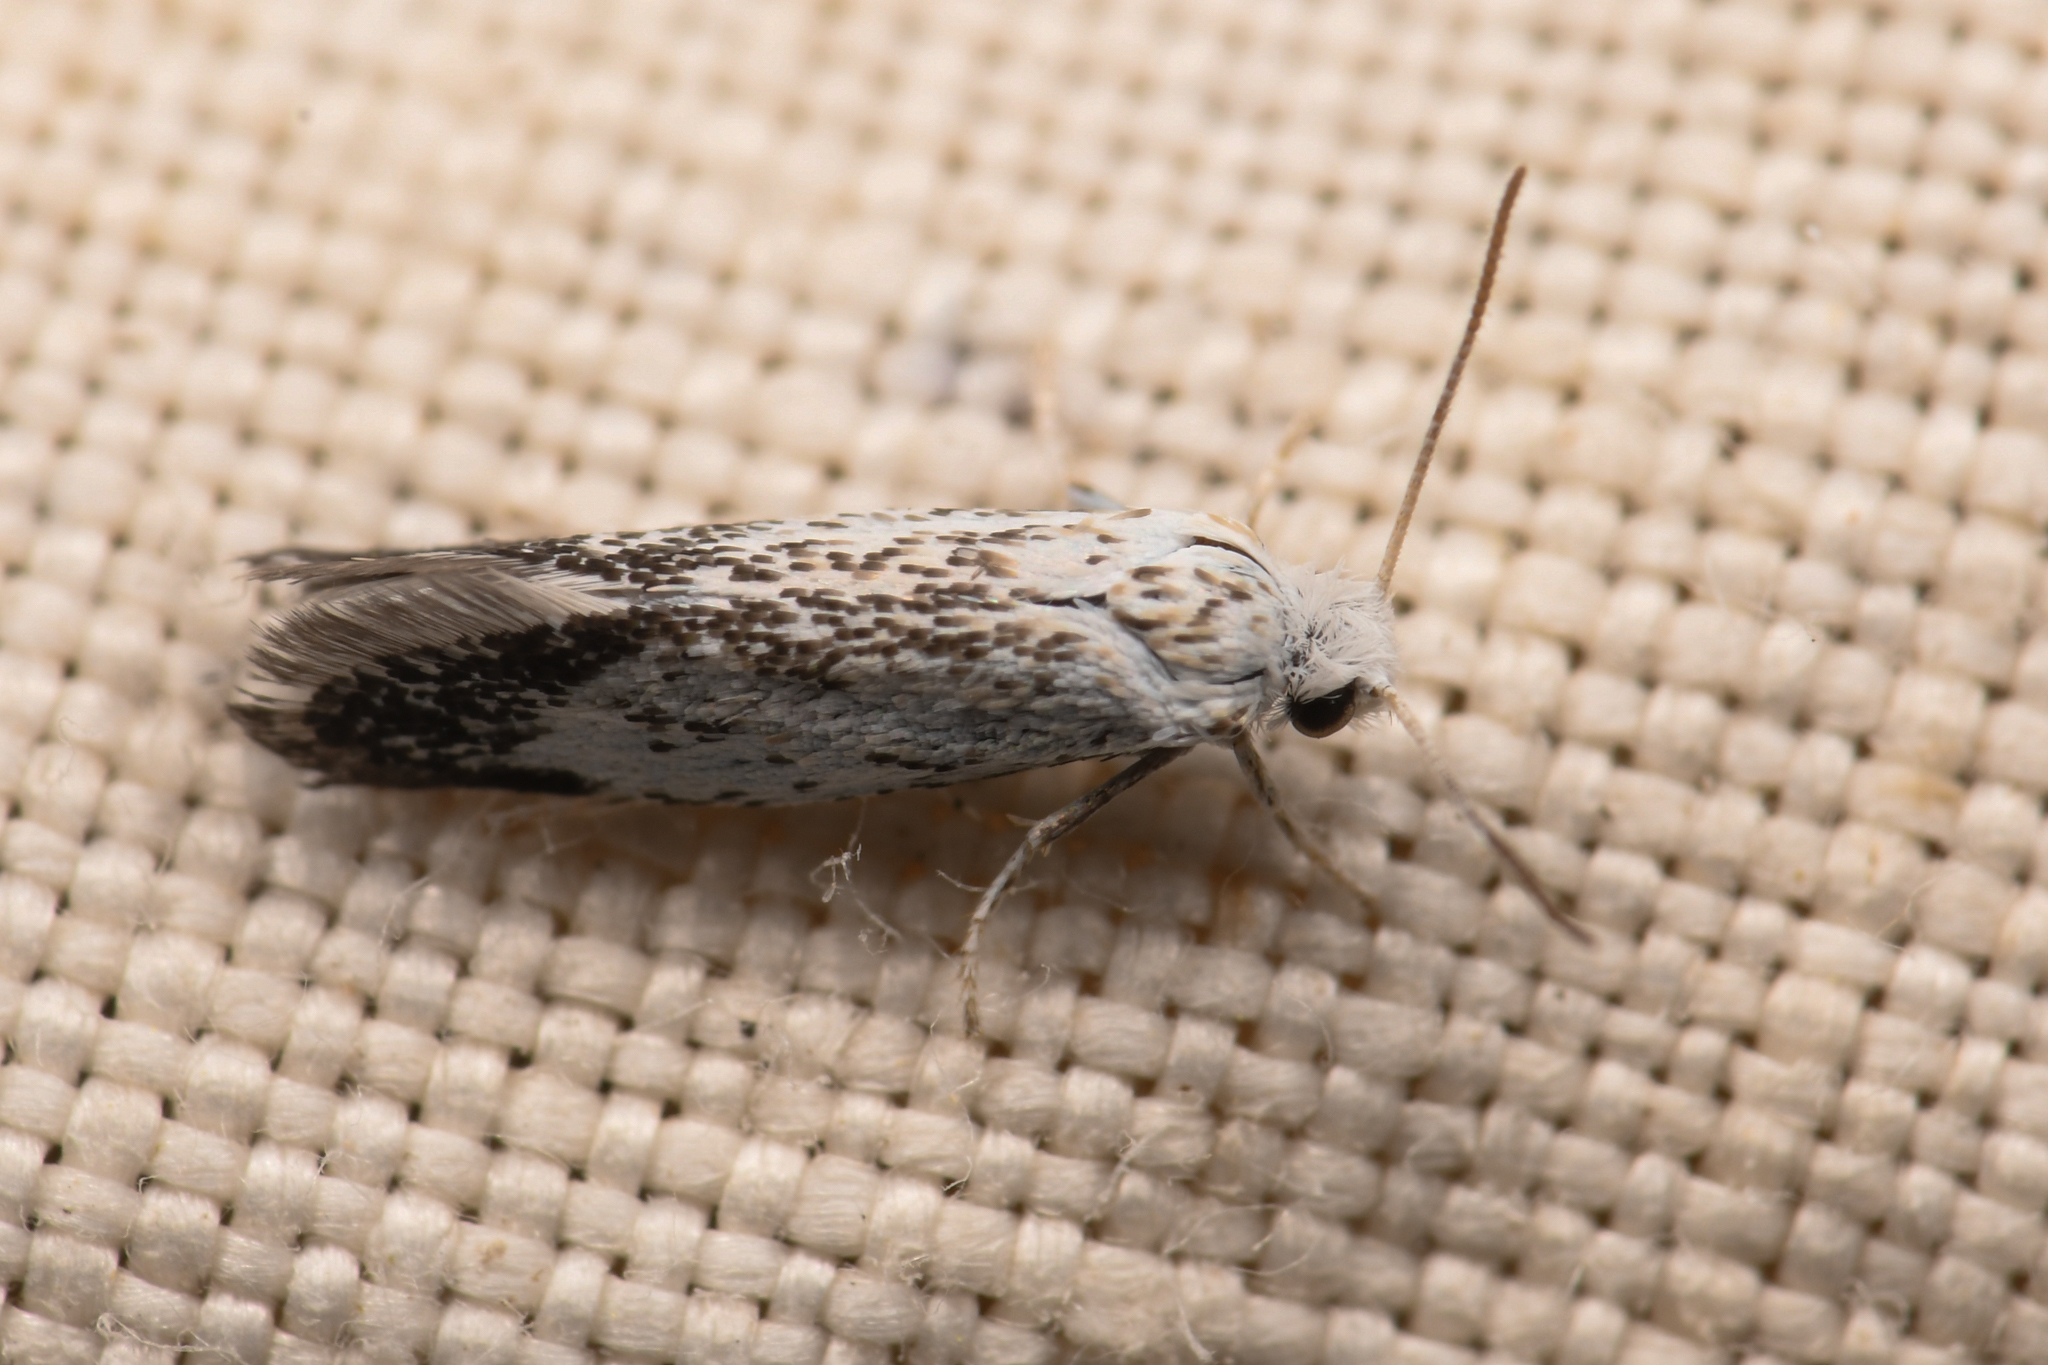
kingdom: Animalia
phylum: Arthropoda
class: Insecta
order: Lepidoptera
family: Prodoxidae
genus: Prodoxus
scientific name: Prodoxus marginatus
